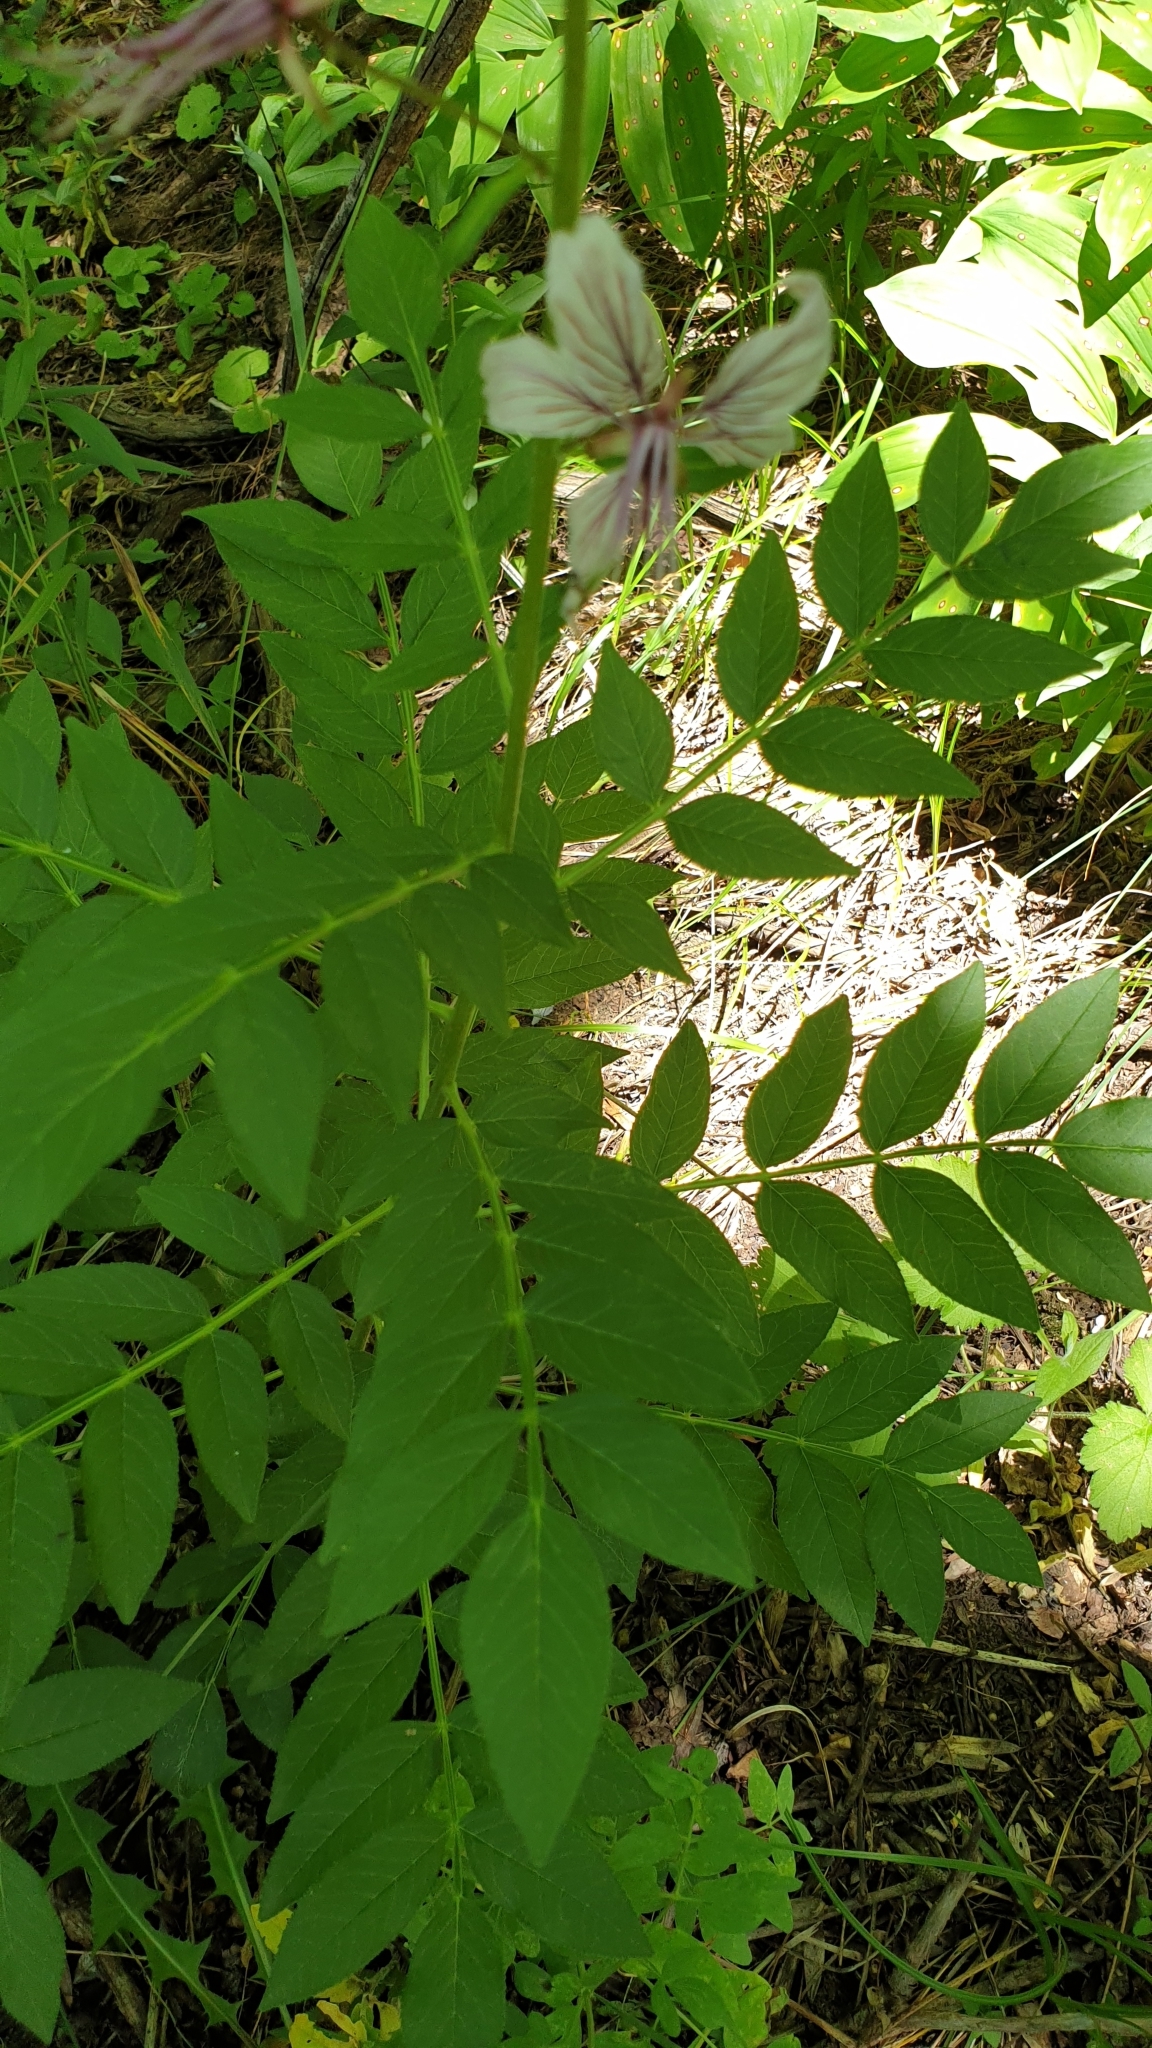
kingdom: Plantae
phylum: Tracheophyta
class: Magnoliopsida
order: Sapindales
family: Rutaceae
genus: Dictamnus
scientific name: Dictamnus albus
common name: Gasplant
